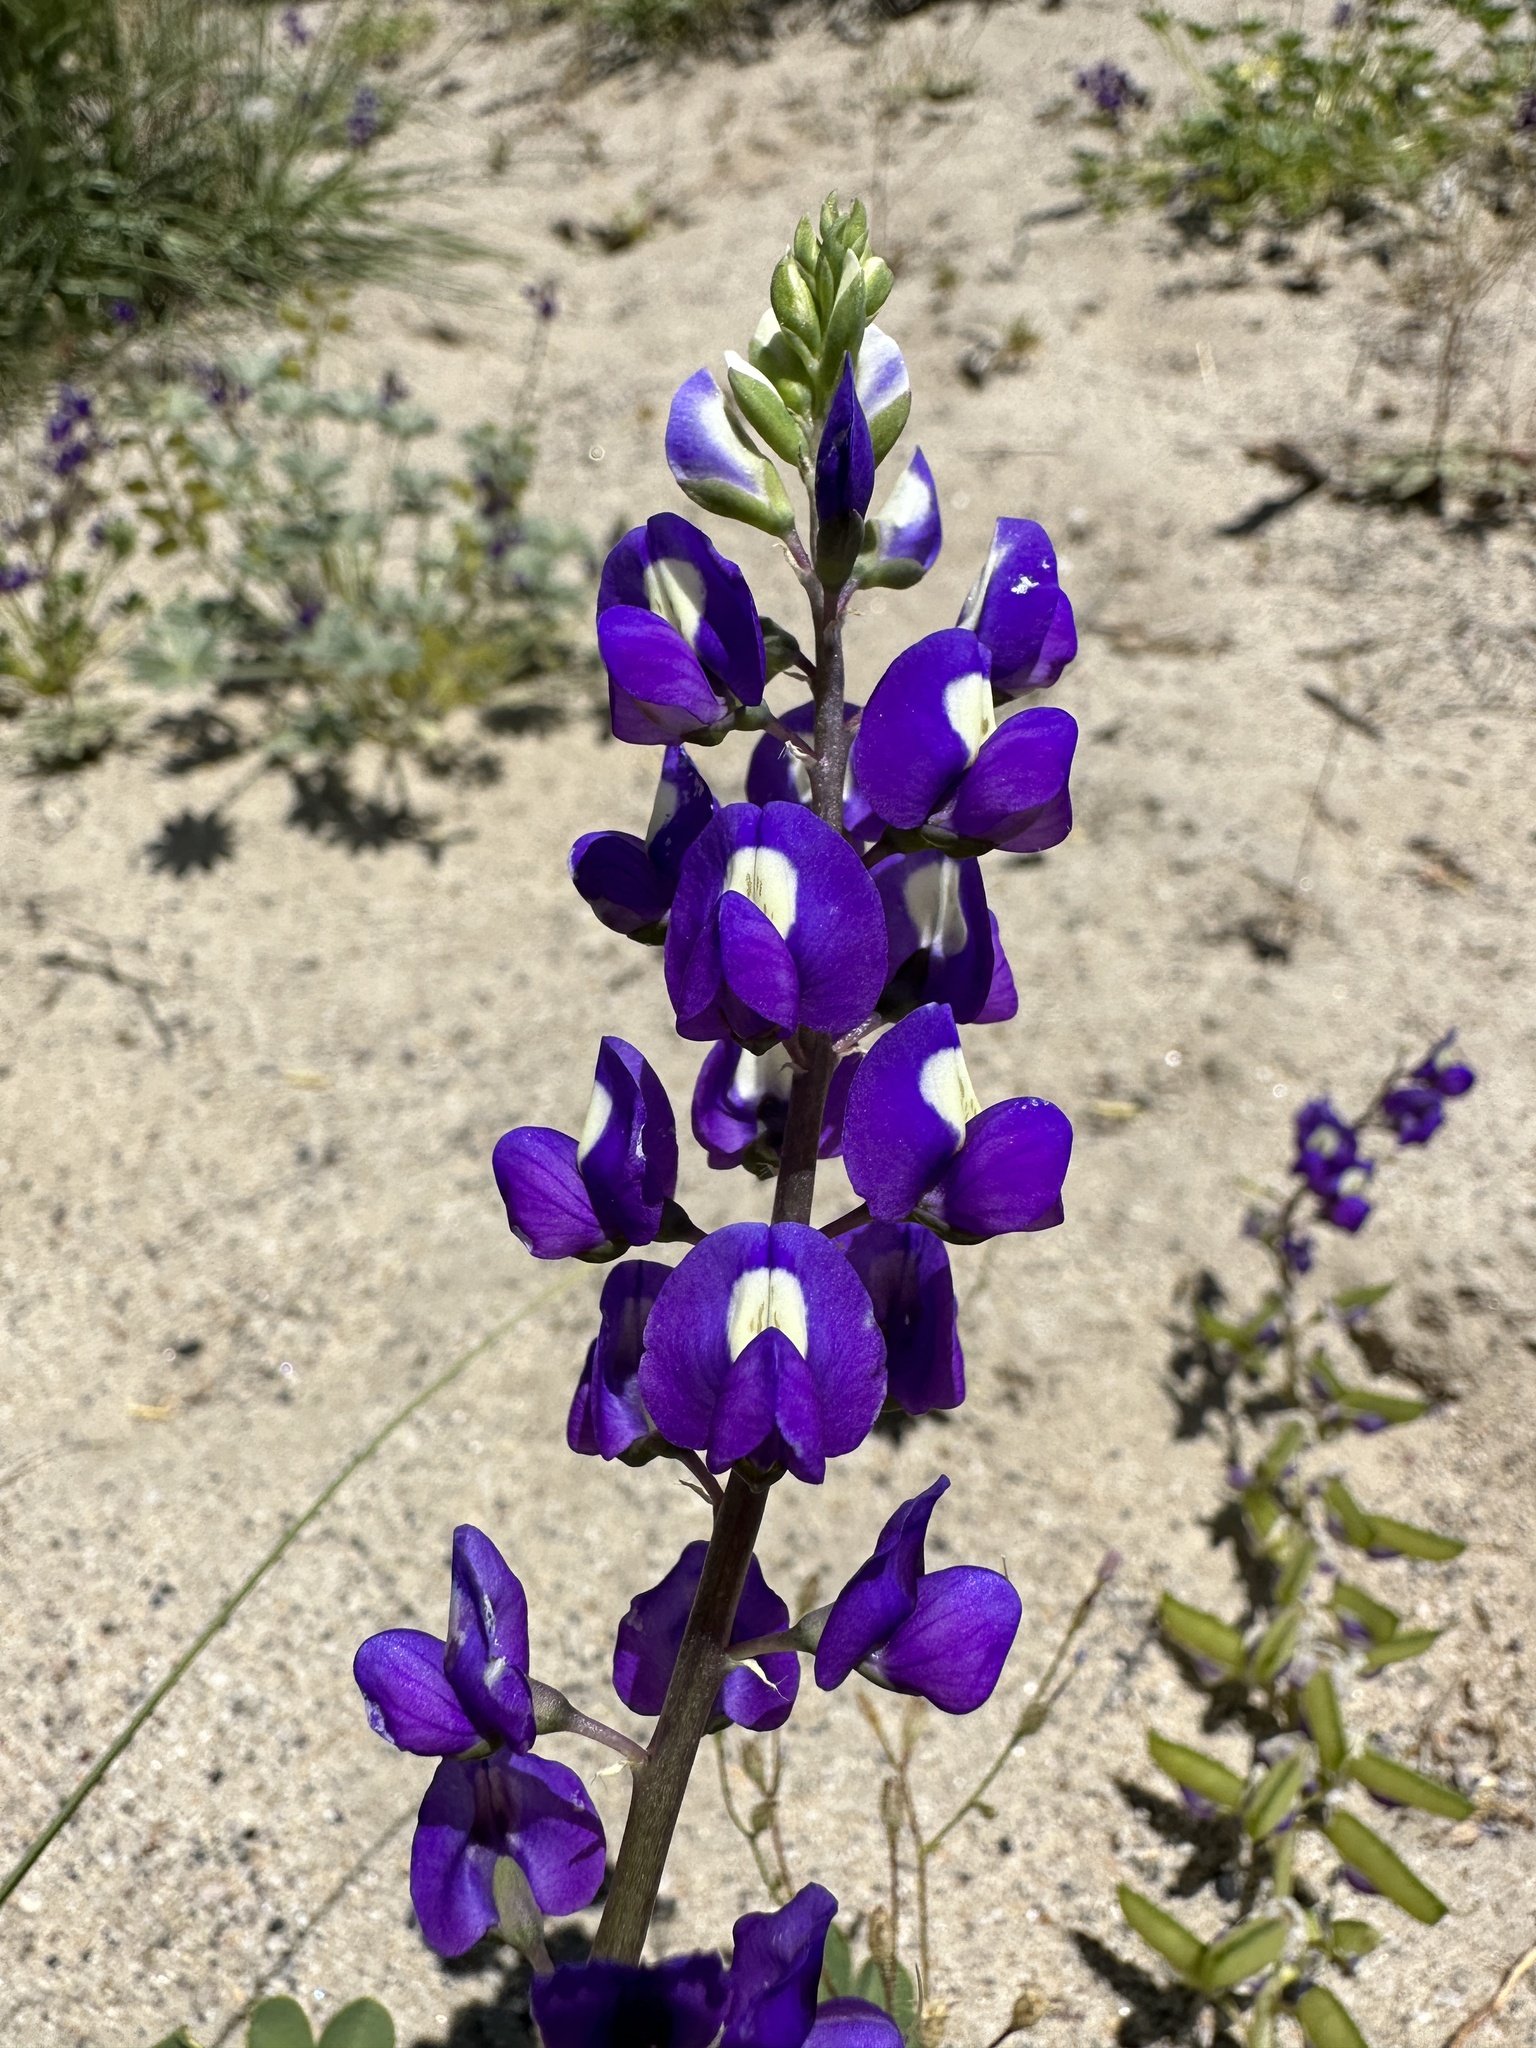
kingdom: Plantae
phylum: Tracheophyta
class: Magnoliopsida
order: Fabales
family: Fabaceae
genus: Lupinus
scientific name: Lupinus
